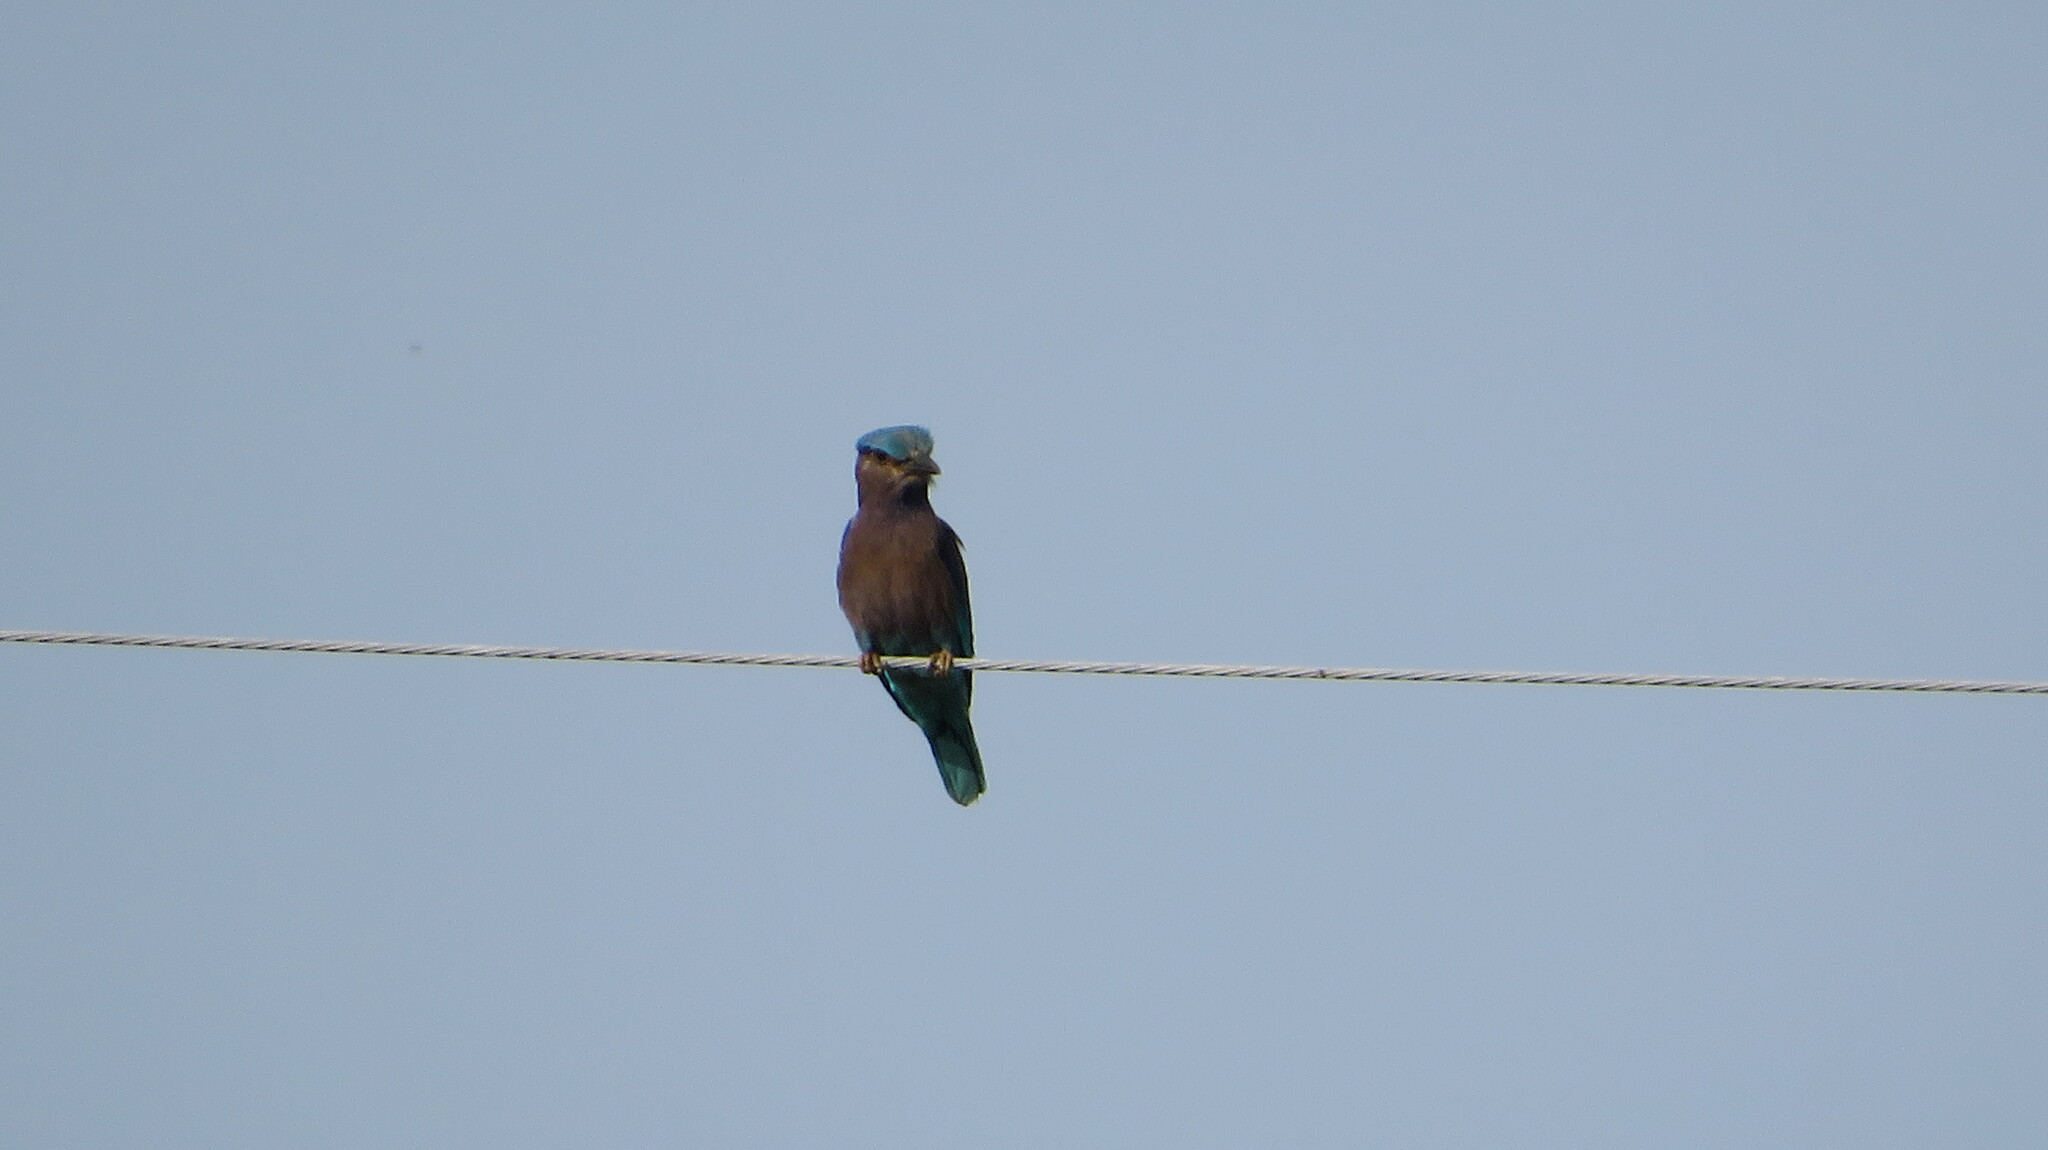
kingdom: Animalia
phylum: Chordata
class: Aves
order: Coraciiformes
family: Coraciidae
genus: Coracias
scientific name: Coracias affinis
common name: Indochinese roller
